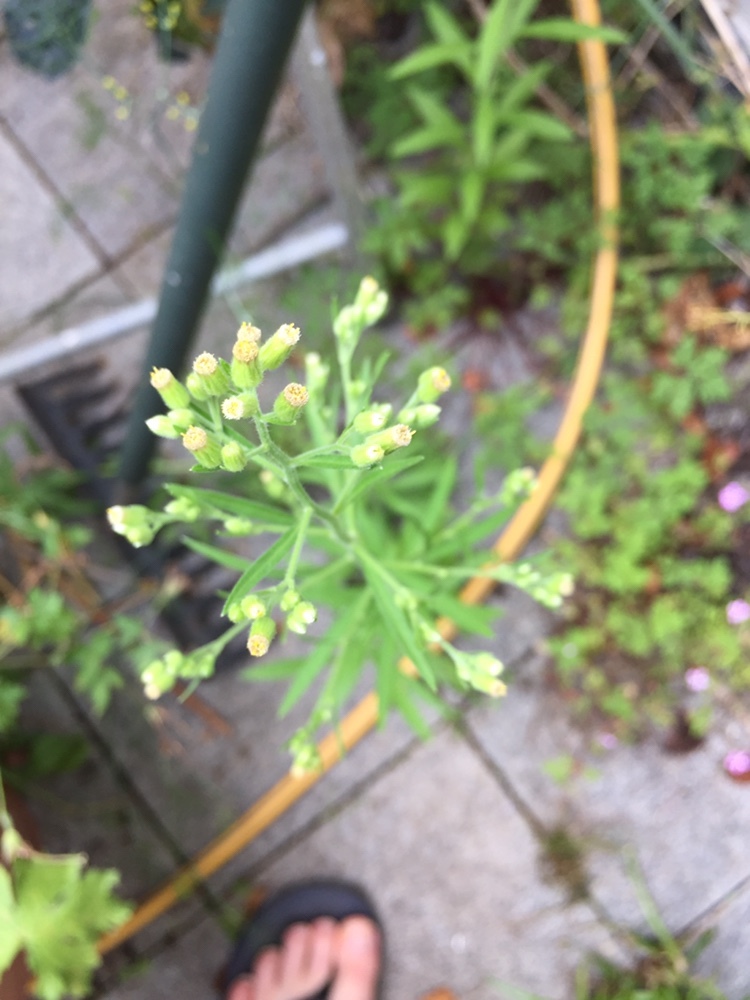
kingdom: Plantae
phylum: Tracheophyta
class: Magnoliopsida
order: Asterales
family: Asteraceae
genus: Erigeron
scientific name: Erigeron sumatrensis
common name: Daisy
